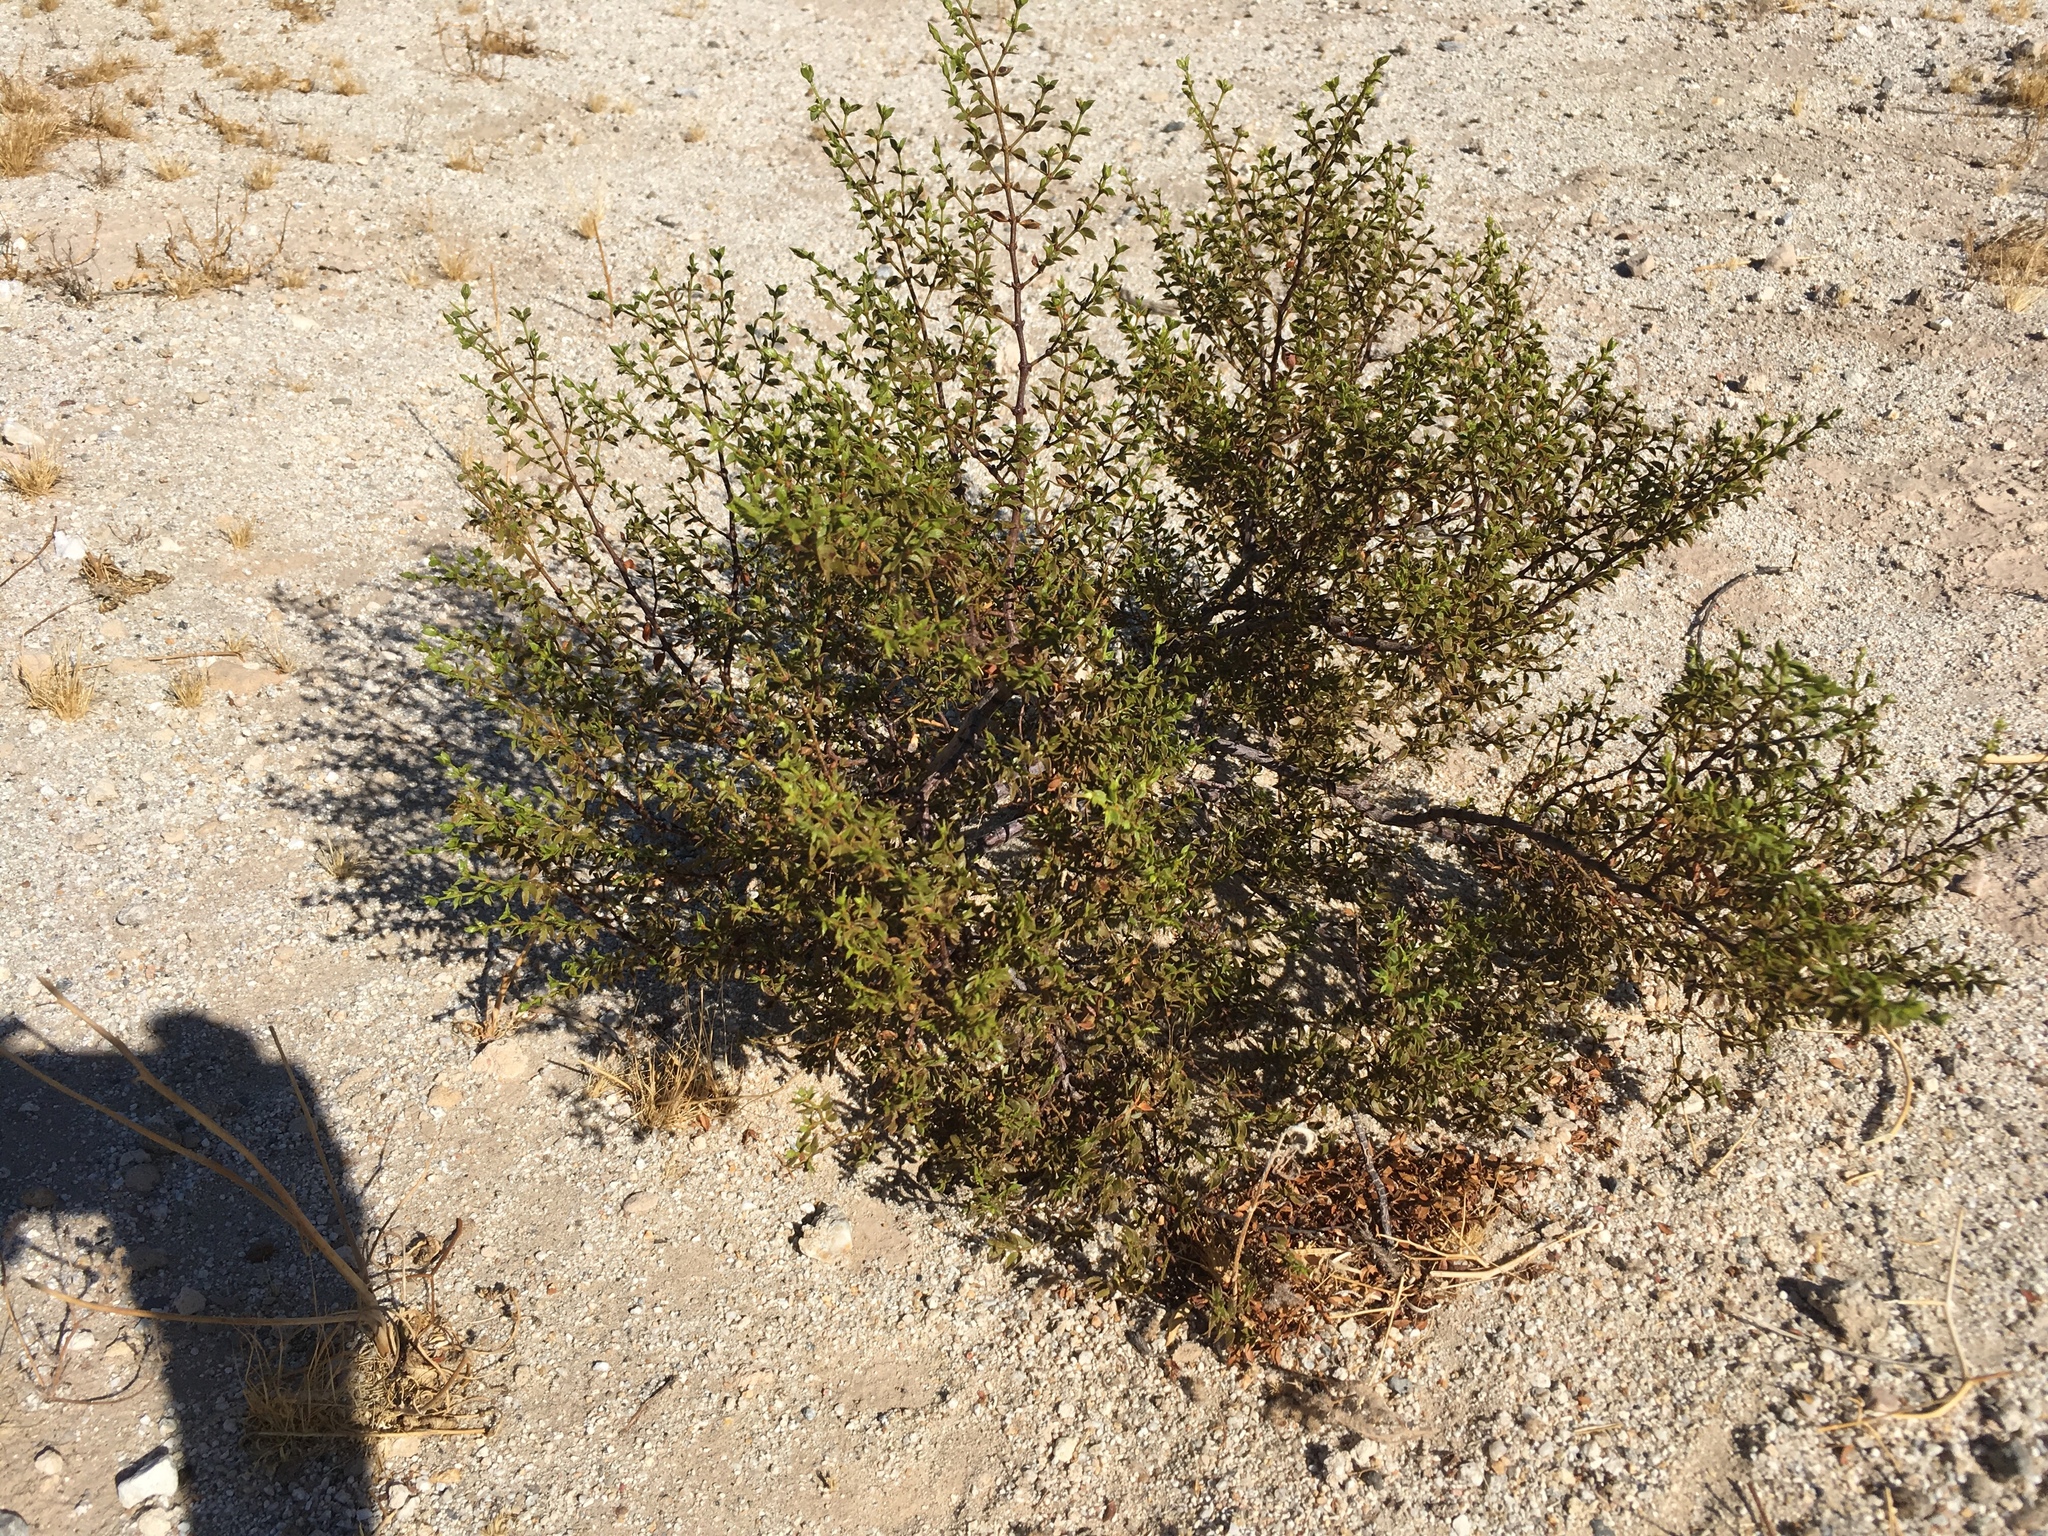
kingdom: Plantae
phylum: Tracheophyta
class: Magnoliopsida
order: Zygophyllales
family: Zygophyllaceae
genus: Larrea
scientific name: Larrea tridentata
